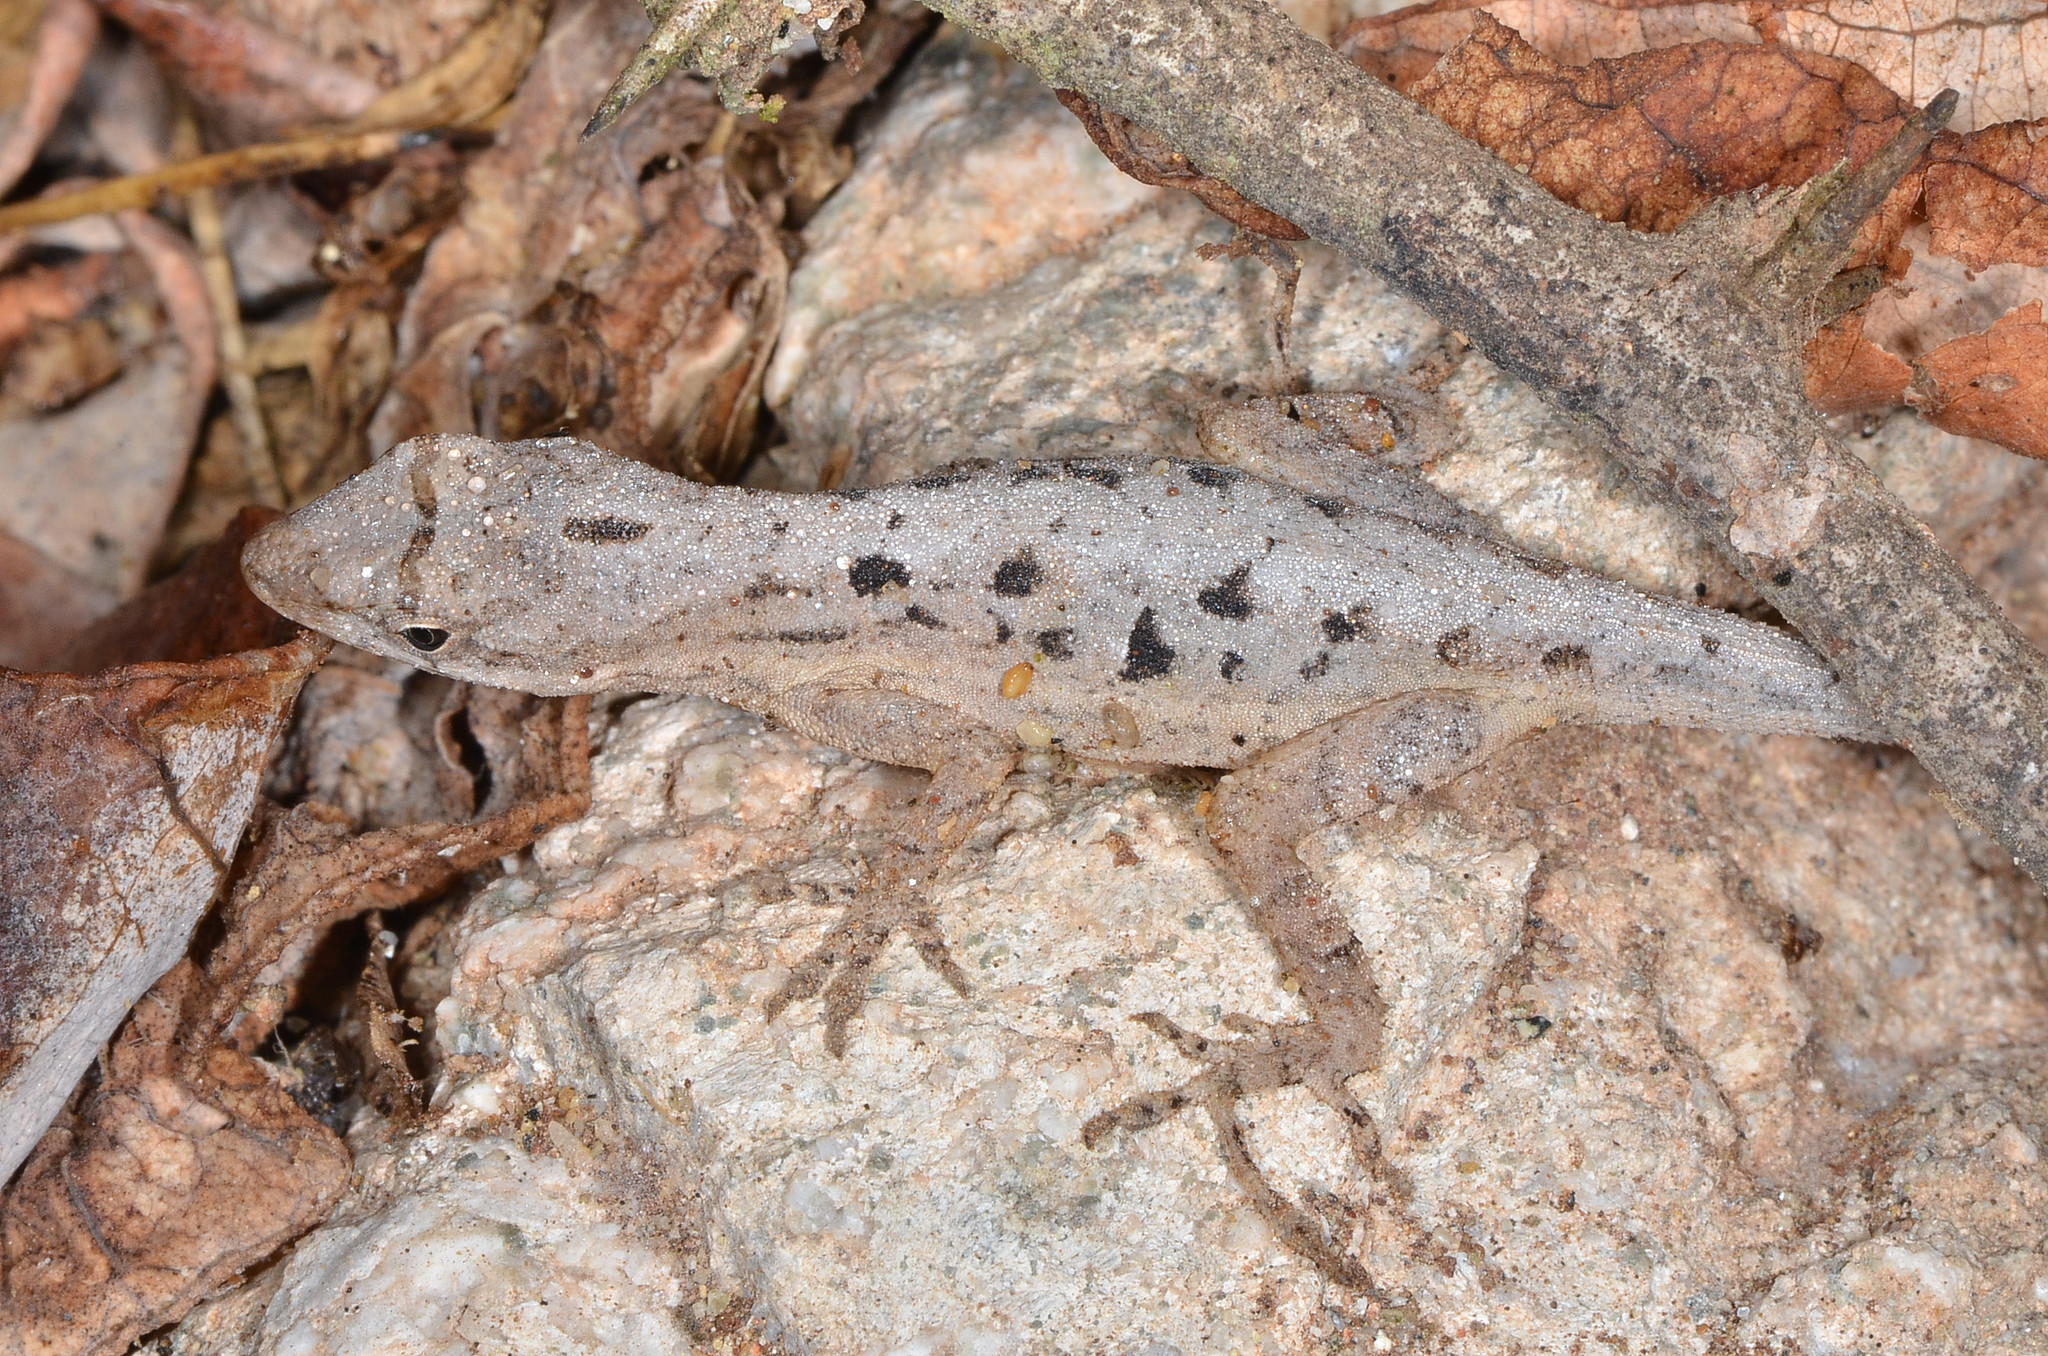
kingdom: Animalia
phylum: Chordata
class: Squamata
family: Dactyloidae
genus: Anolis
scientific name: Anolis nebulosus
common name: Clouded anole
